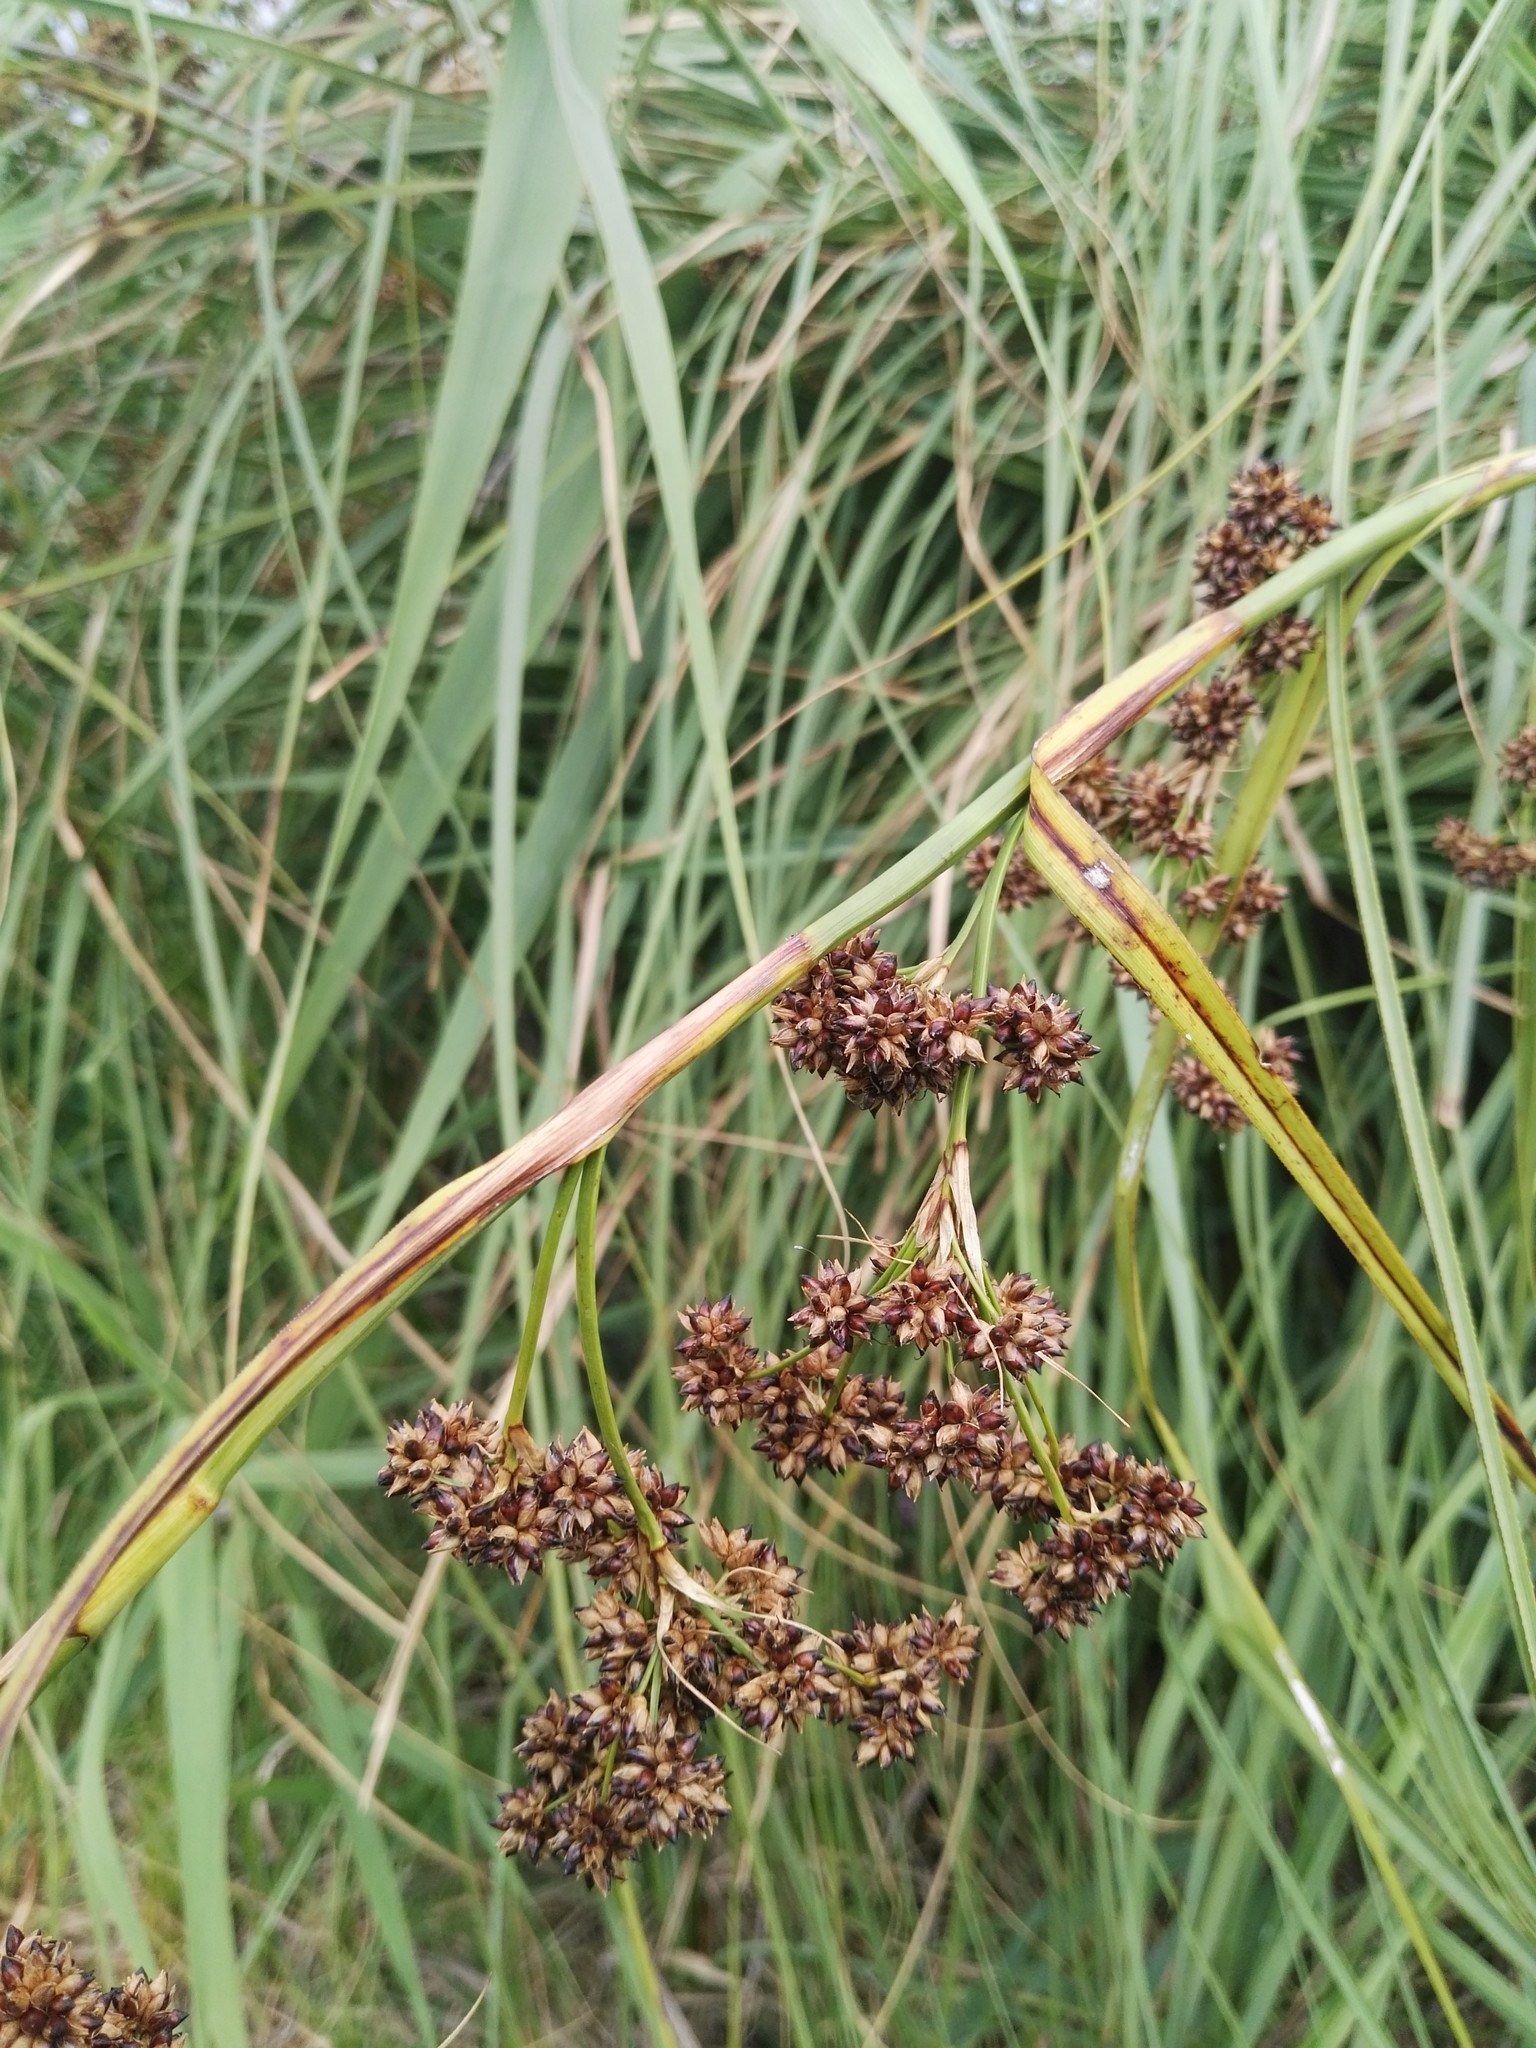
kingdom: Plantae
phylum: Tracheophyta
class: Liliopsida
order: Poales
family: Cyperaceae
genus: Cladium
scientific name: Cladium mariscus
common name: Great fen-sedge
